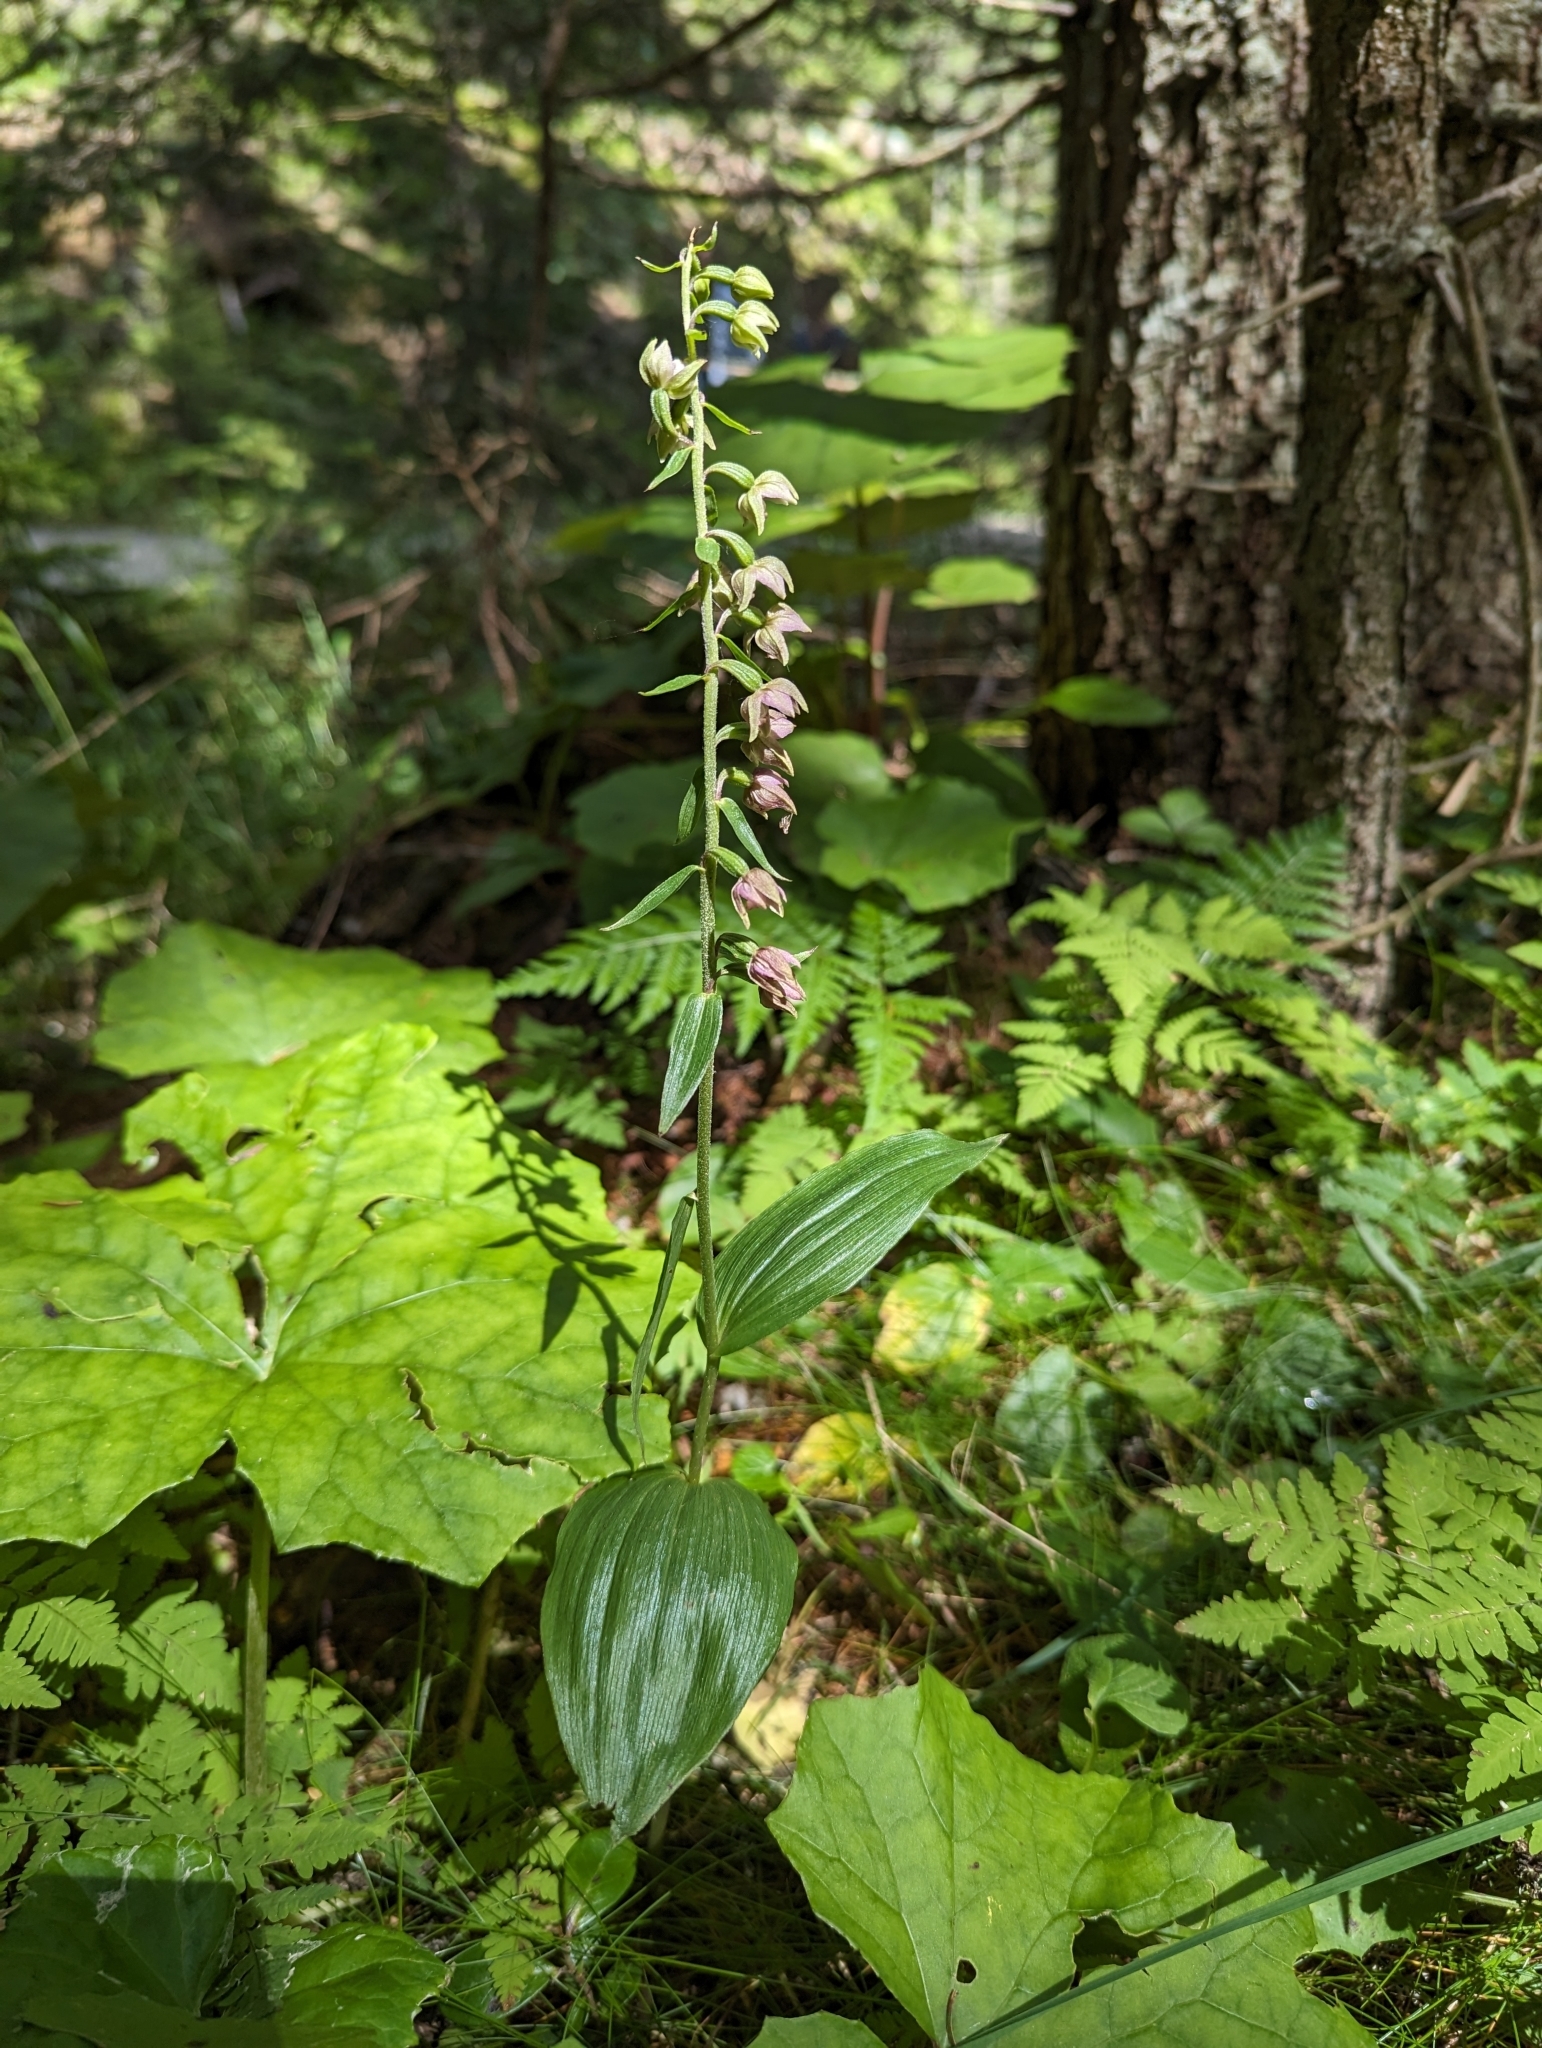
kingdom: Plantae
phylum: Tracheophyta
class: Liliopsida
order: Asparagales
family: Orchidaceae
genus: Epipactis
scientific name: Epipactis helleborine
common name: Broad-leaved helleborine
